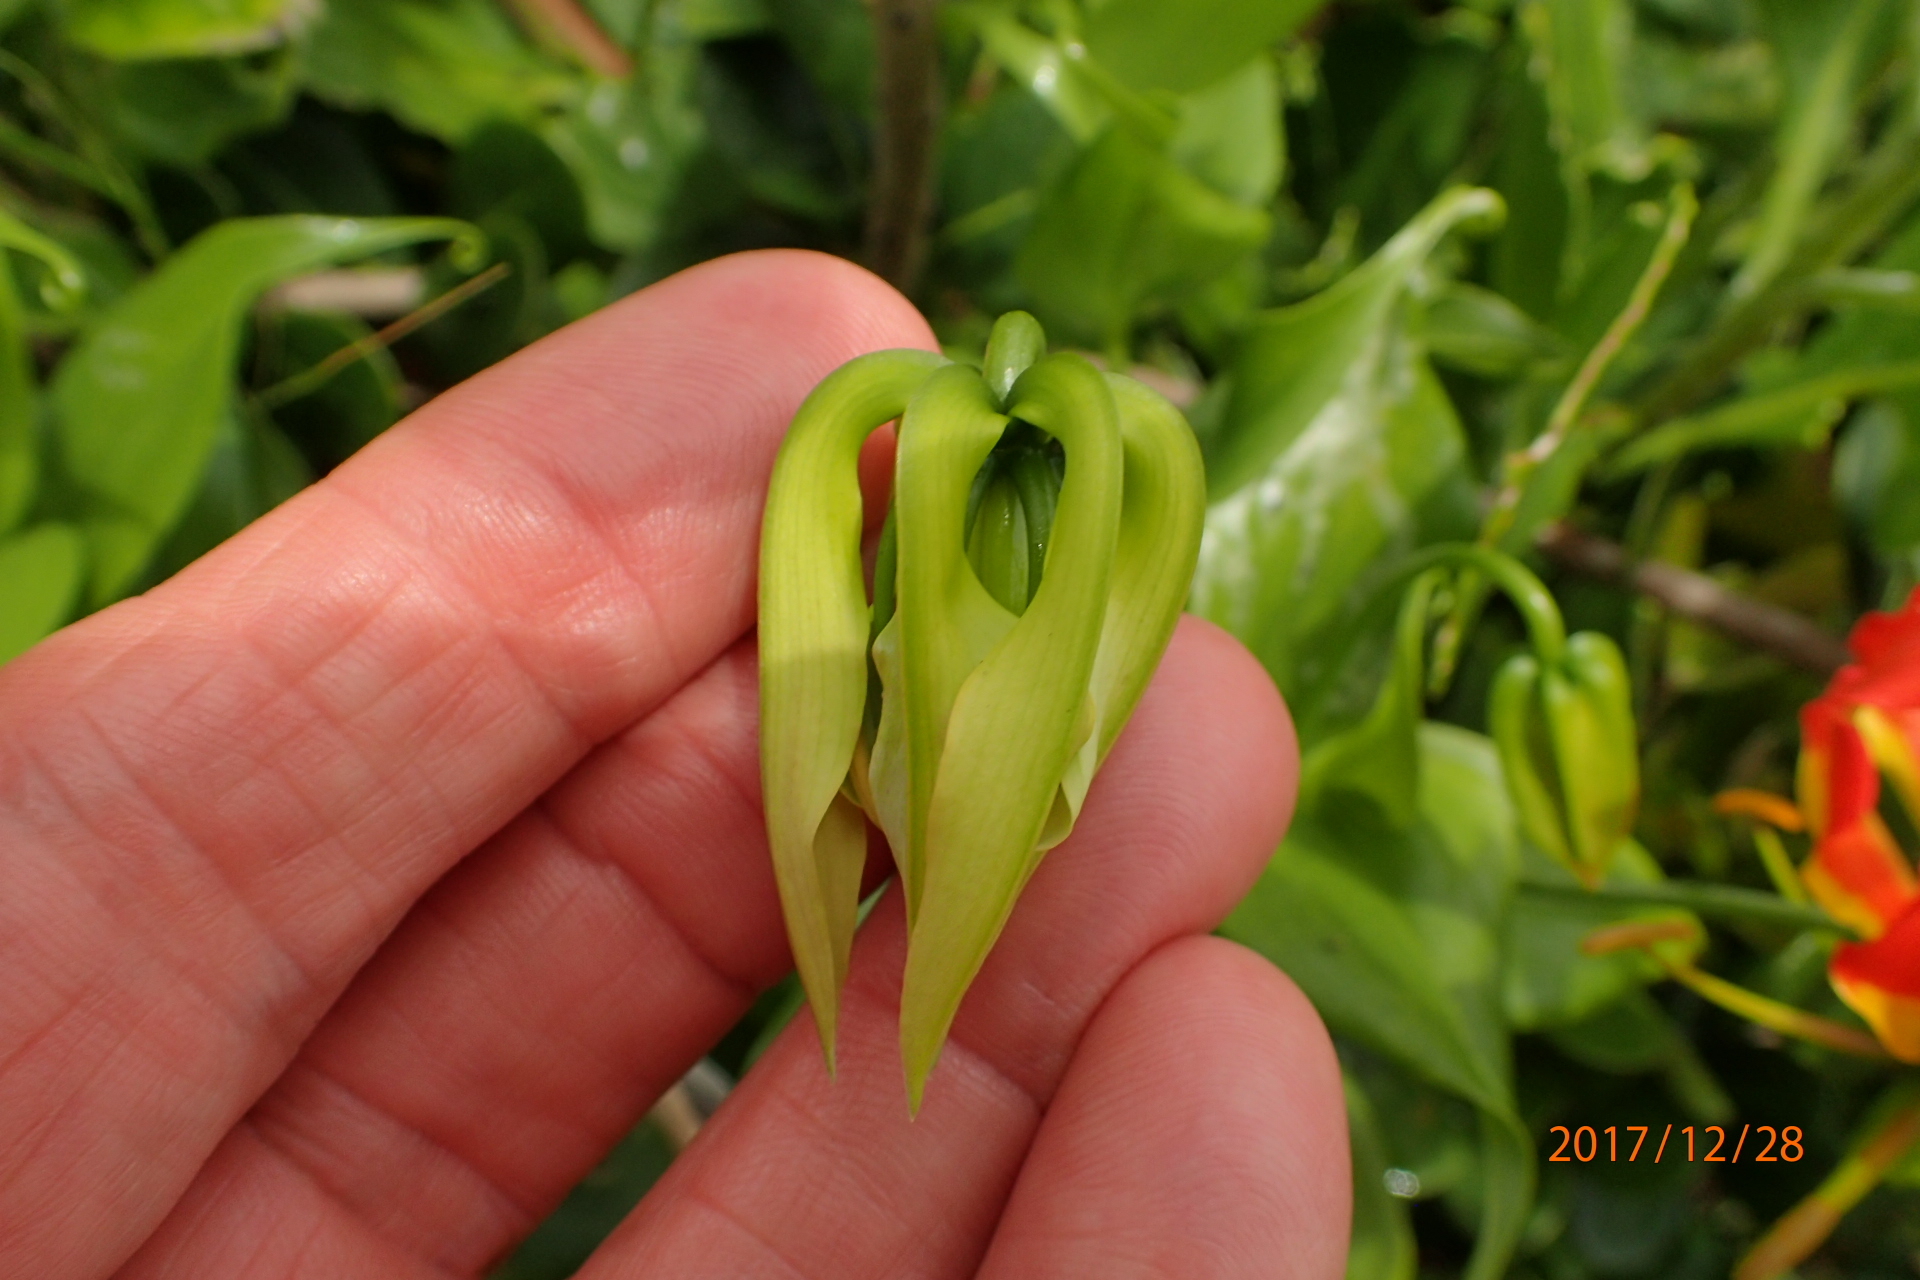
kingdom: Plantae
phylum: Tracheophyta
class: Liliopsida
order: Liliales
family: Colchicaceae
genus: Gloriosa
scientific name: Gloriosa superba
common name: Flame lily
